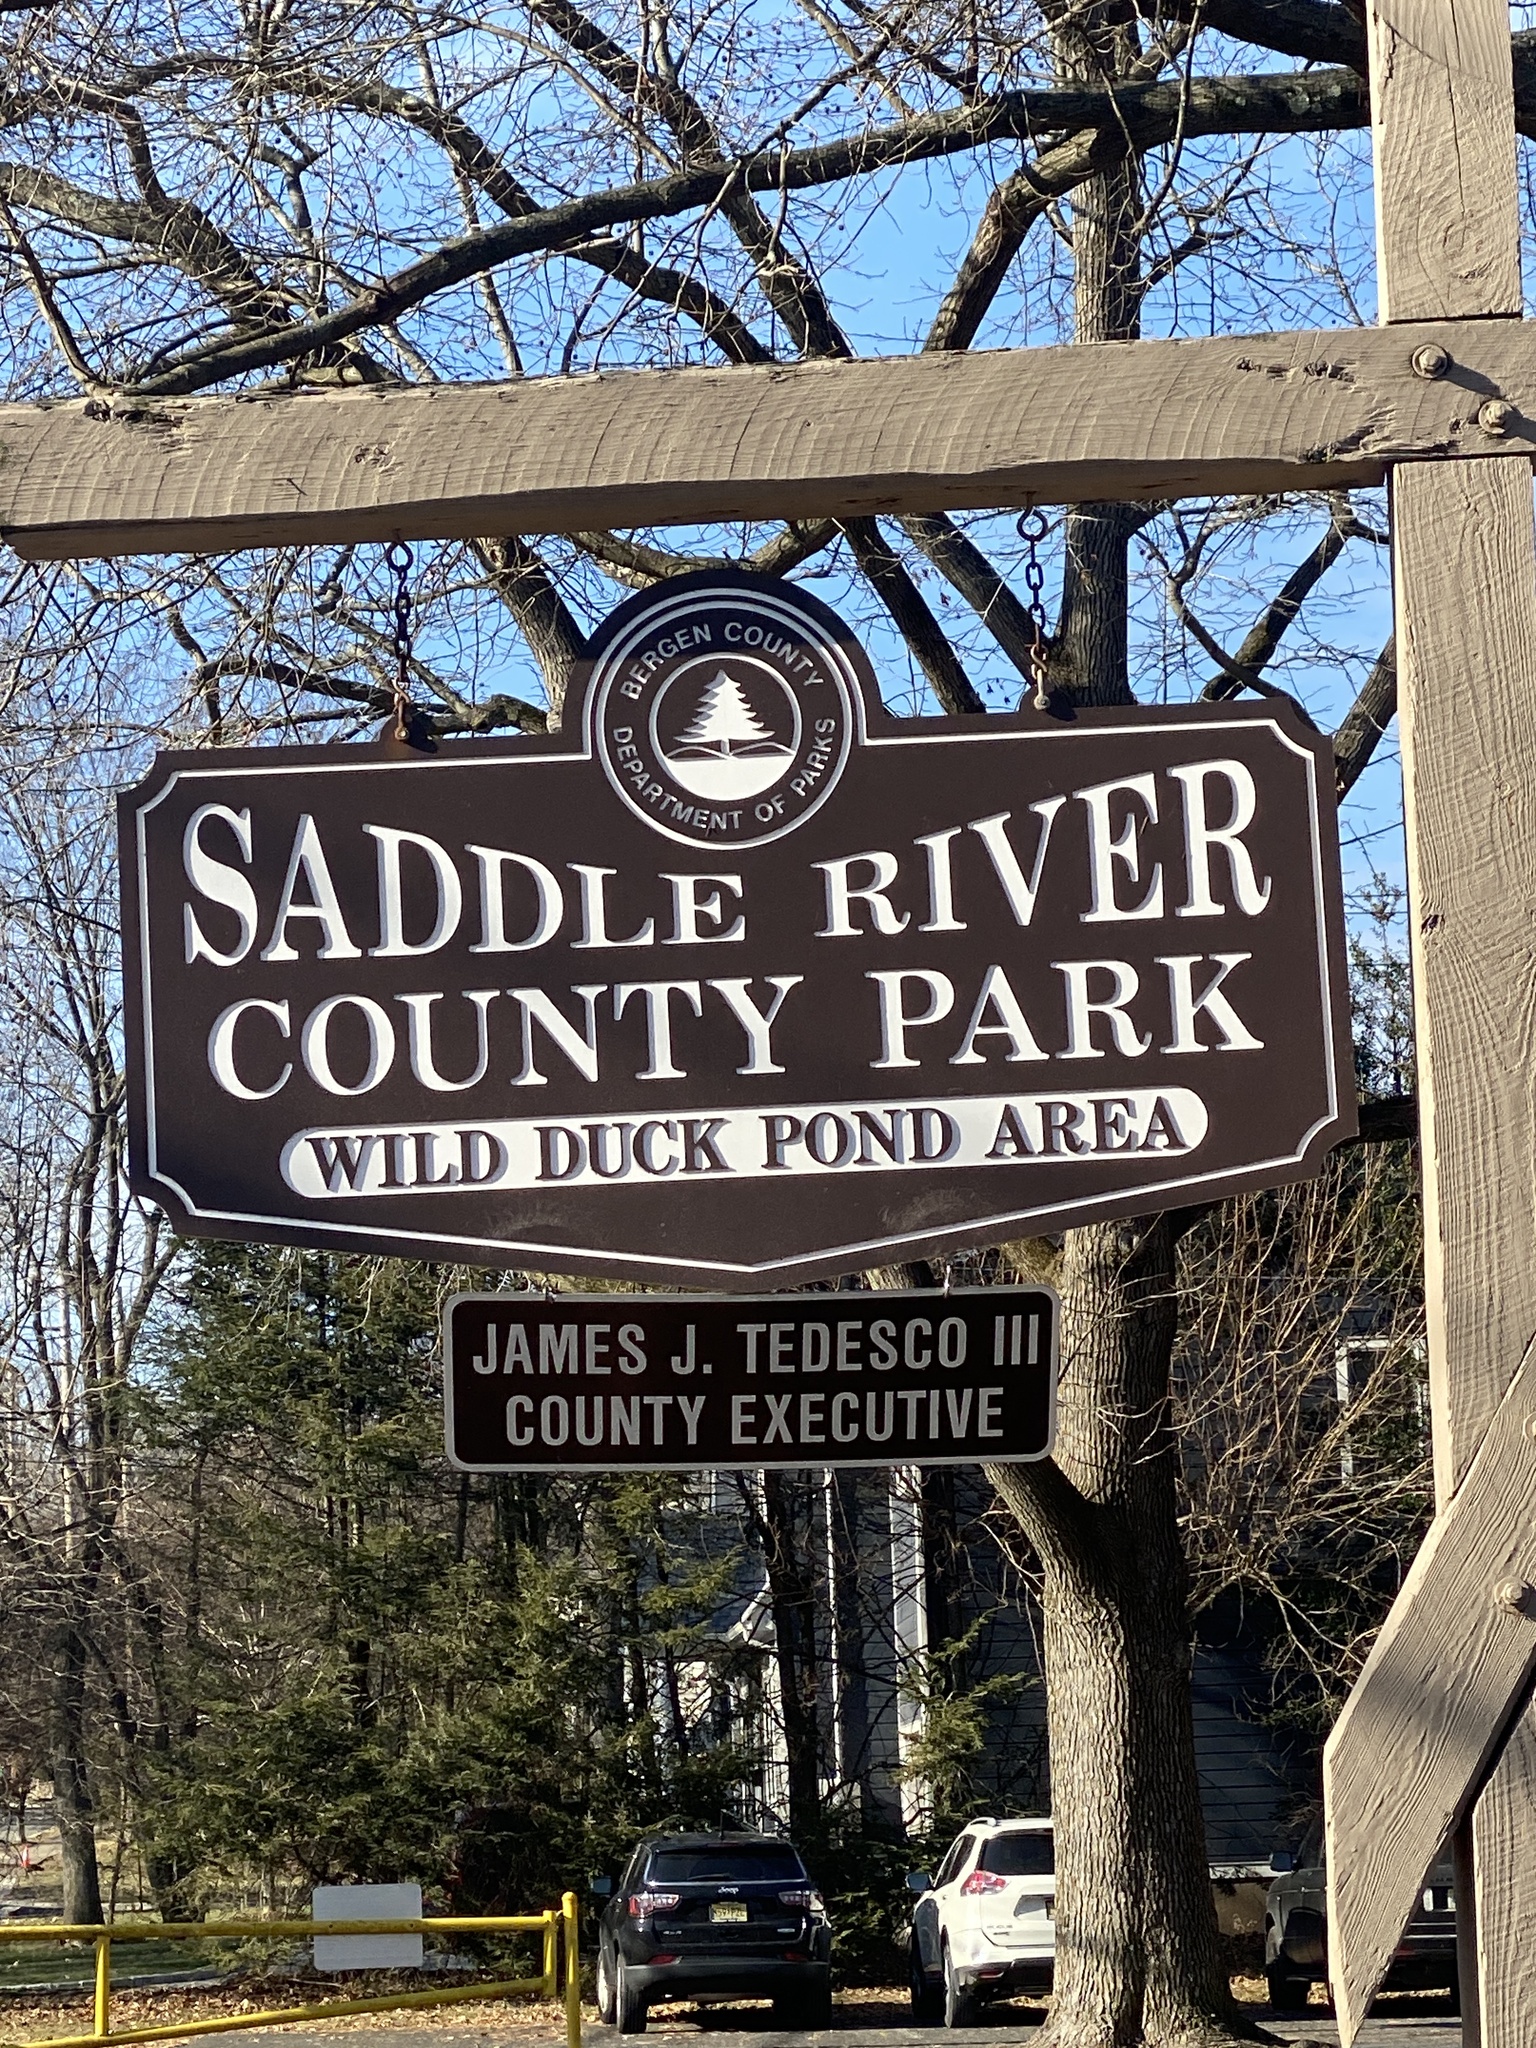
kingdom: Plantae
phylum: Tracheophyta
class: Liliopsida
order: Asparagales
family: Amaryllidaceae
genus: Allium
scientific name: Allium vineale
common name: Crow garlic
